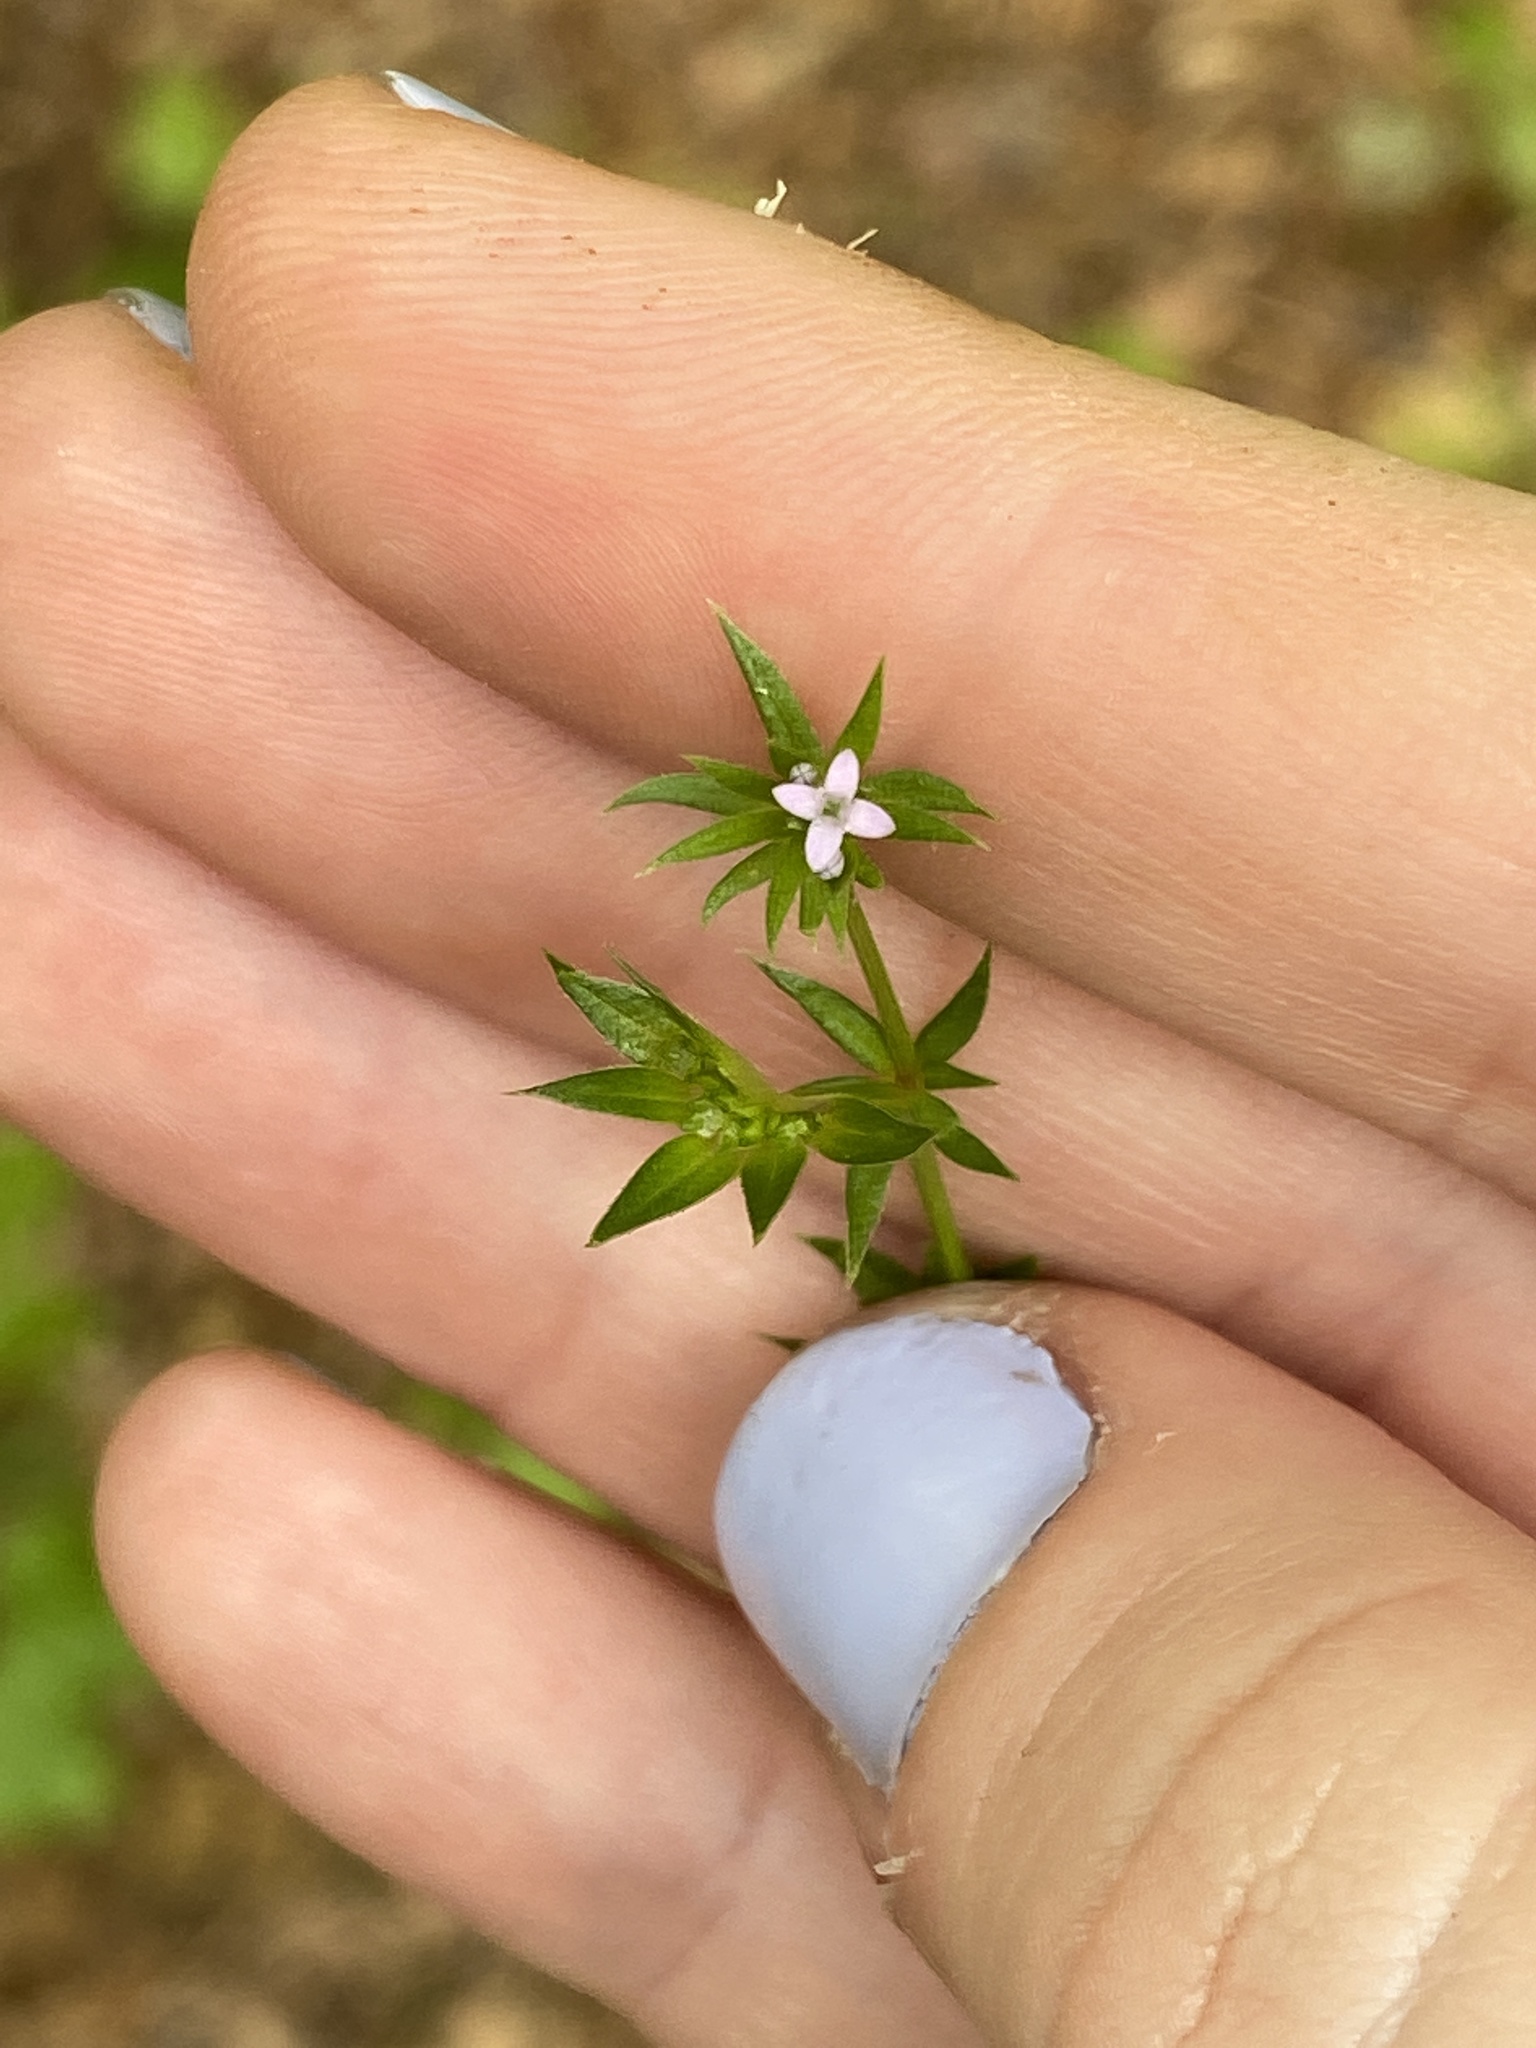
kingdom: Plantae
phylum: Tracheophyta
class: Magnoliopsida
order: Gentianales
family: Rubiaceae
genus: Sherardia
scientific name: Sherardia arvensis
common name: Field madder
